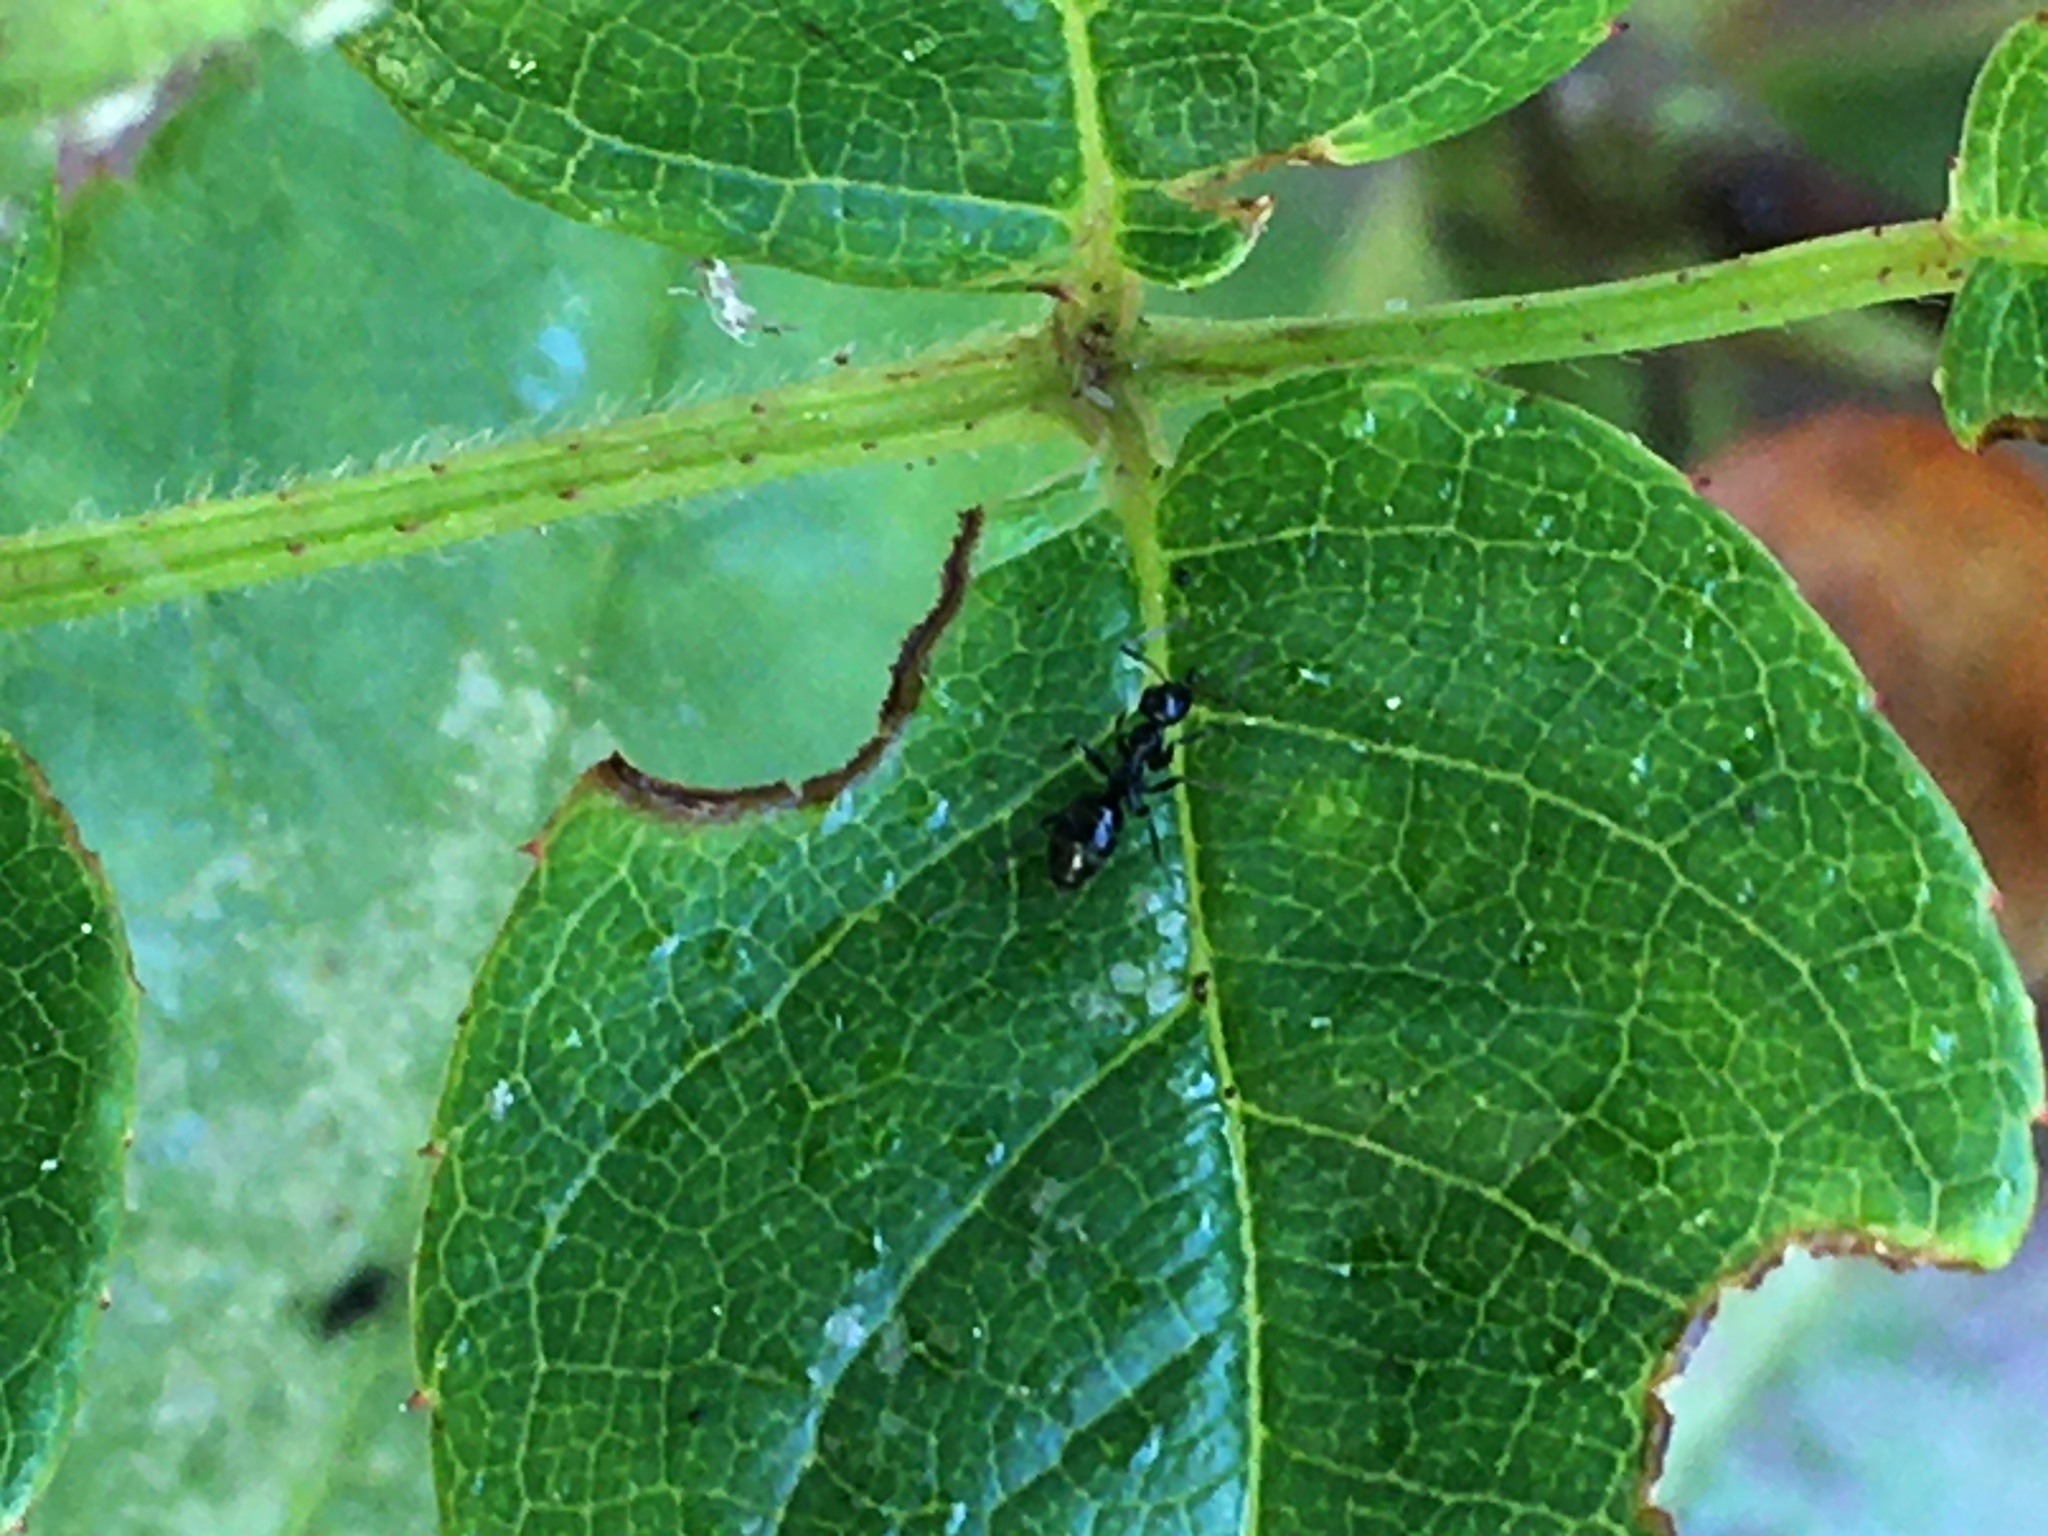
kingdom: Animalia
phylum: Arthropoda
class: Insecta
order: Hymenoptera
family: Formicidae
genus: Lepisiota
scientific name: Lepisiota capensis
